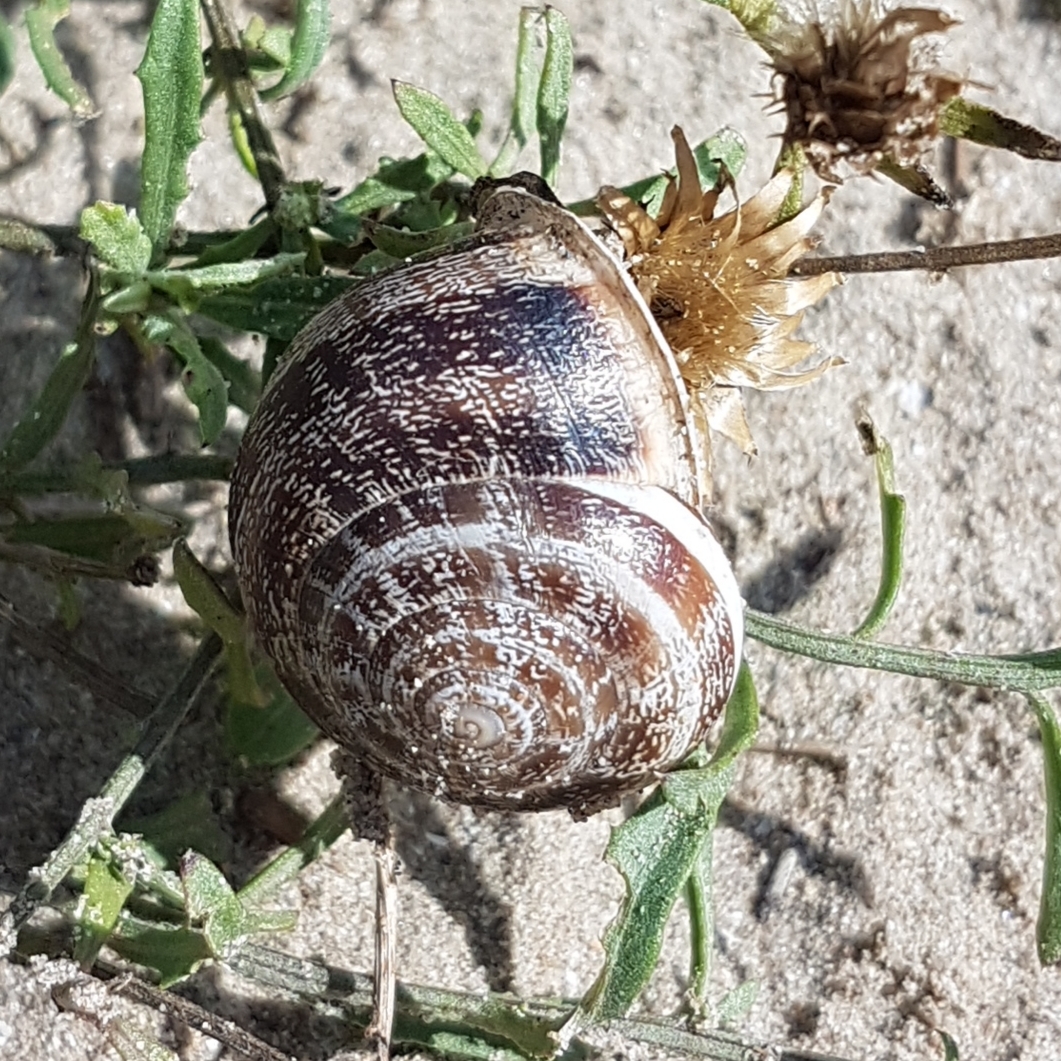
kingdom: Animalia
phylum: Mollusca
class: Gastropoda
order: Stylommatophora
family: Helicidae
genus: Eobania
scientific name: Eobania vermiculata
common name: Chocolateband snail
